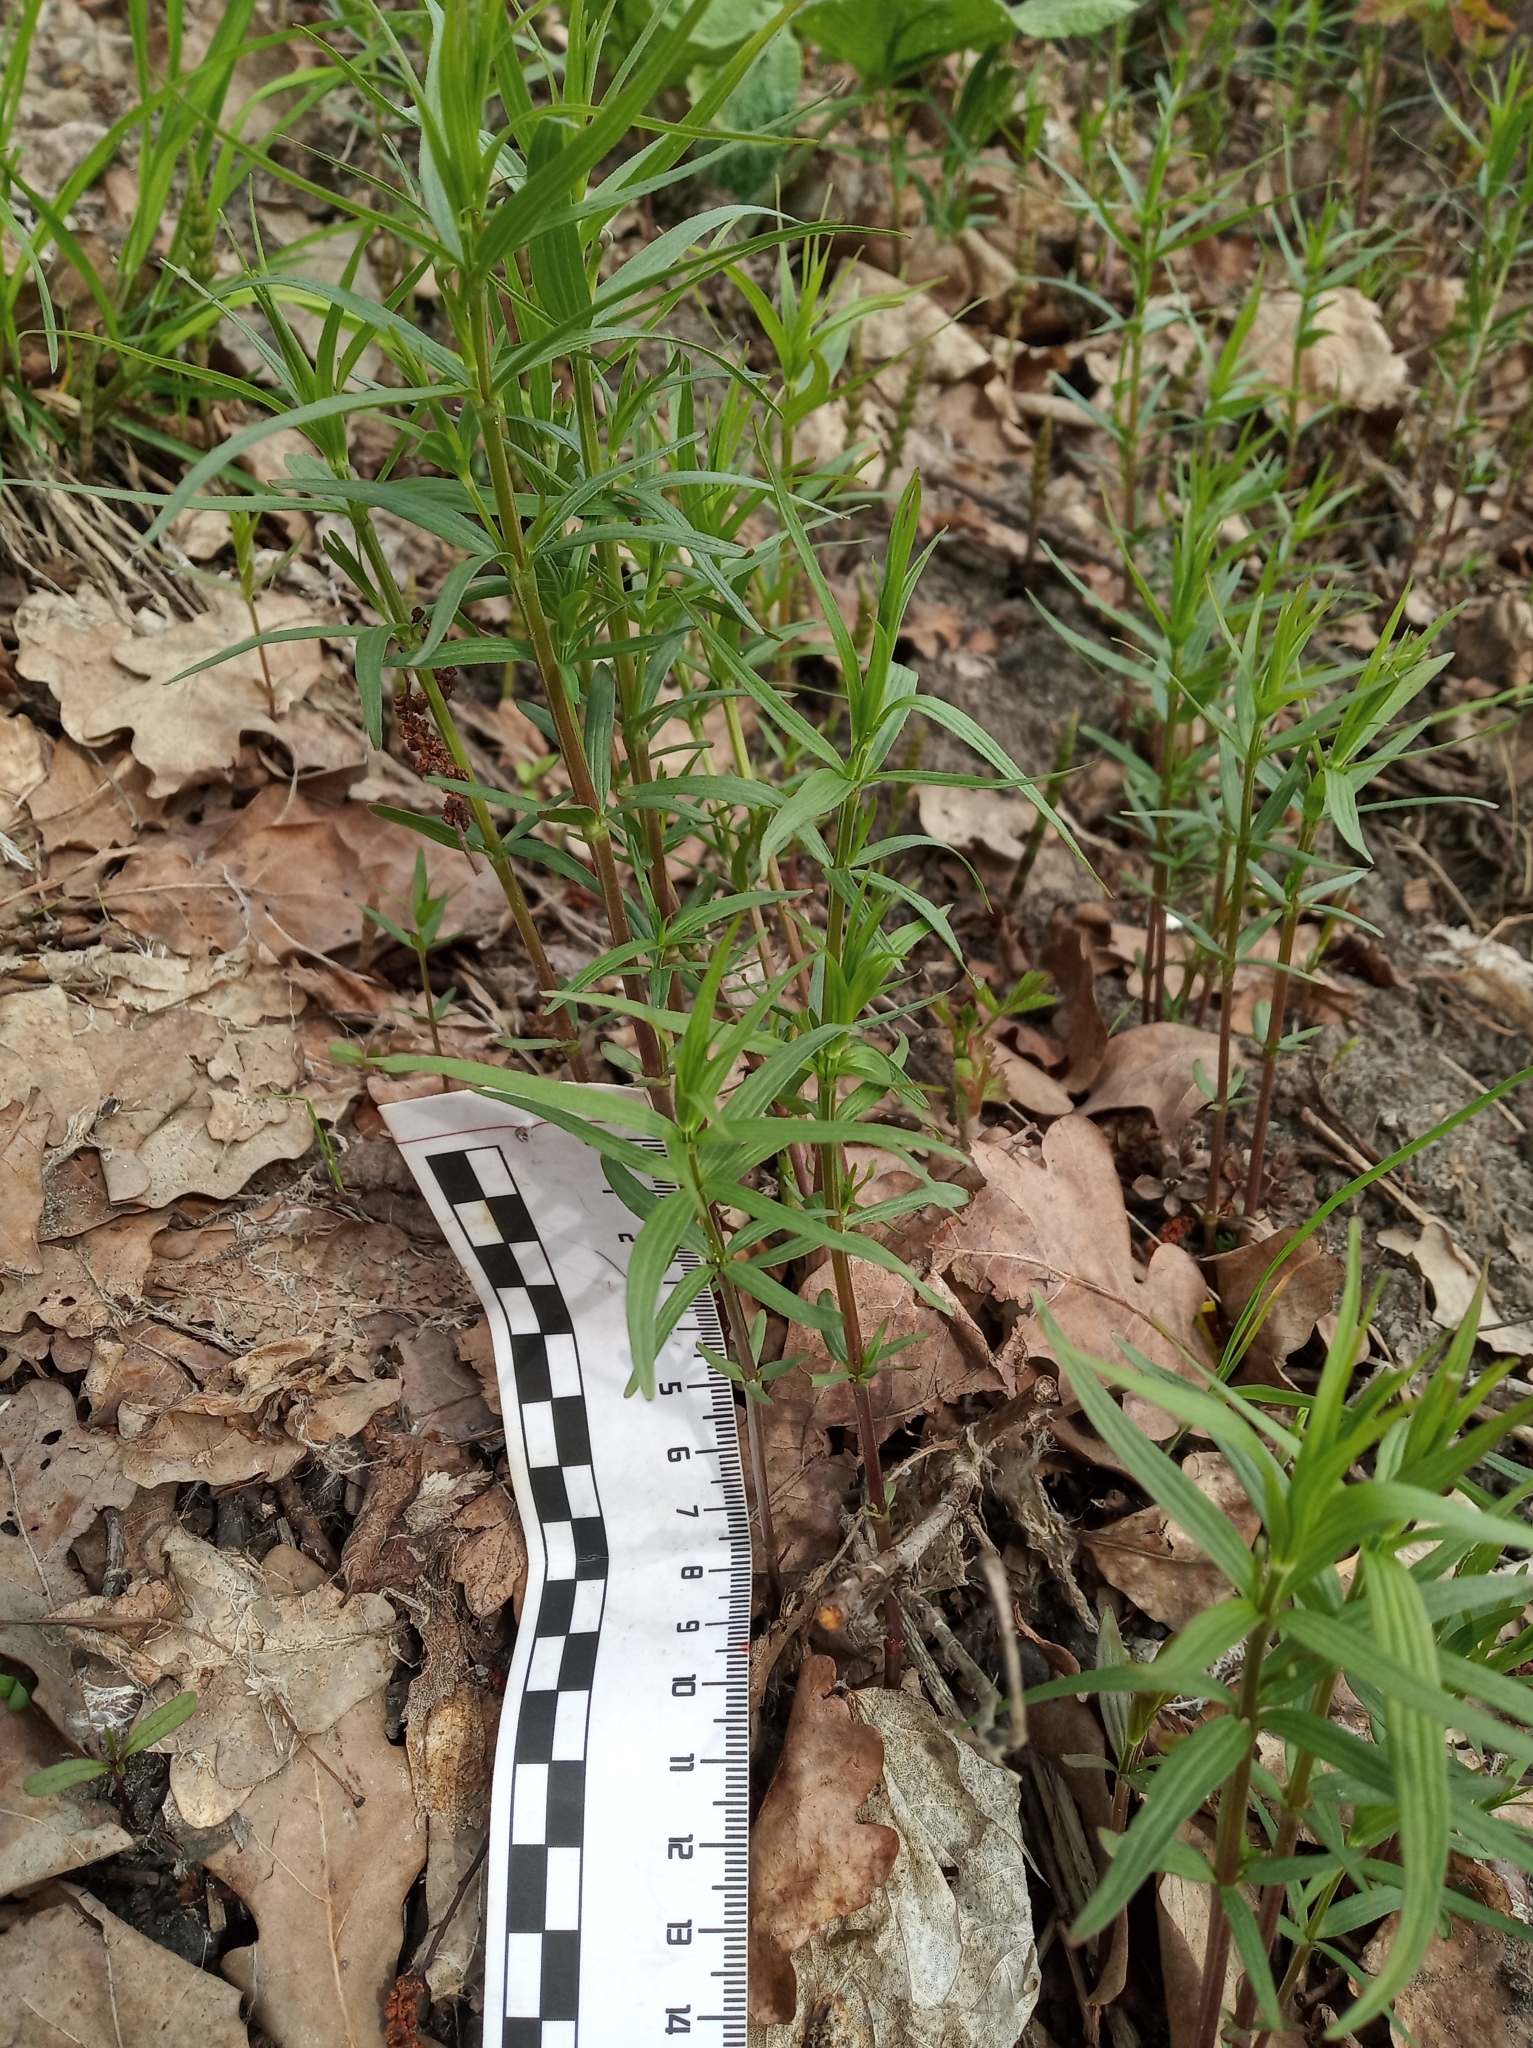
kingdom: Plantae
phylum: Tracheophyta
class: Magnoliopsida
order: Malpighiales
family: Euphorbiaceae
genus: Euphorbia
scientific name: Euphorbia virgata
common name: Leafy spurge
